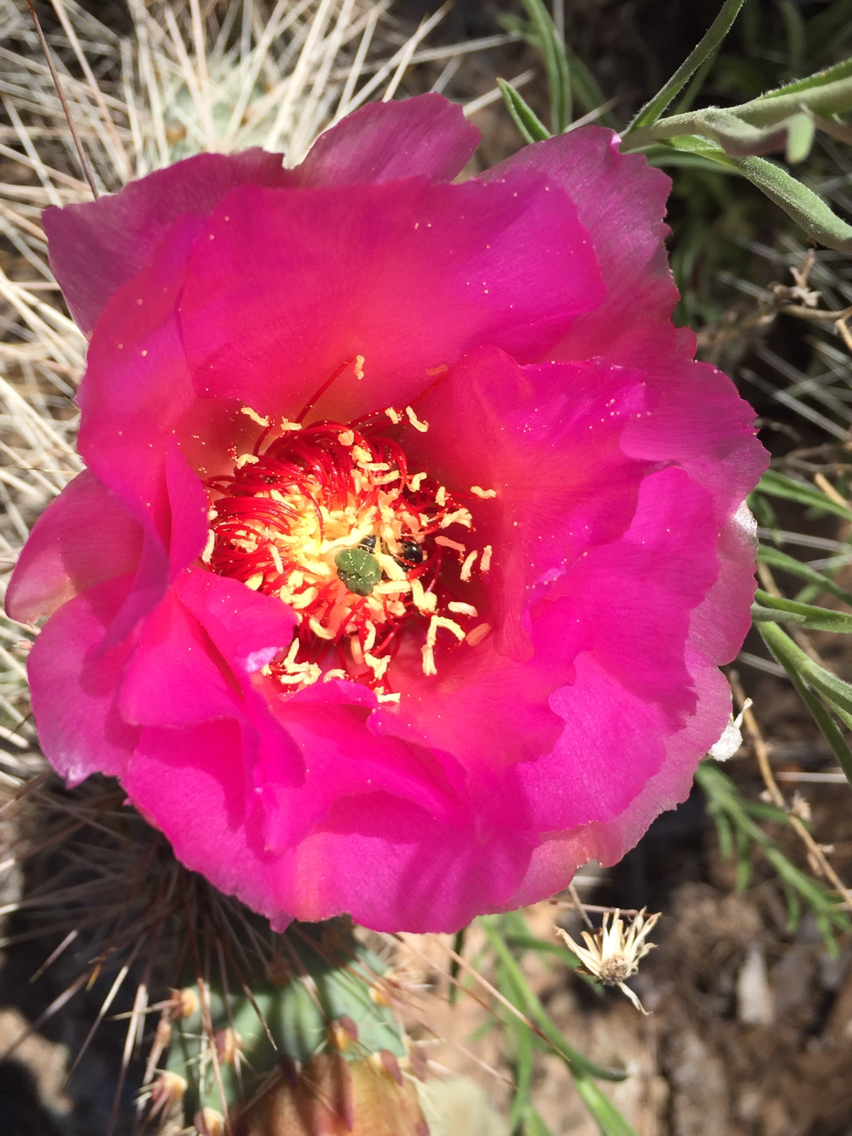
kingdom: Plantae
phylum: Tracheophyta
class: Magnoliopsida
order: Caryophyllales
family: Cactaceae
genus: Opuntia
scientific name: Opuntia polyacantha
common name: Plains prickly-pear
